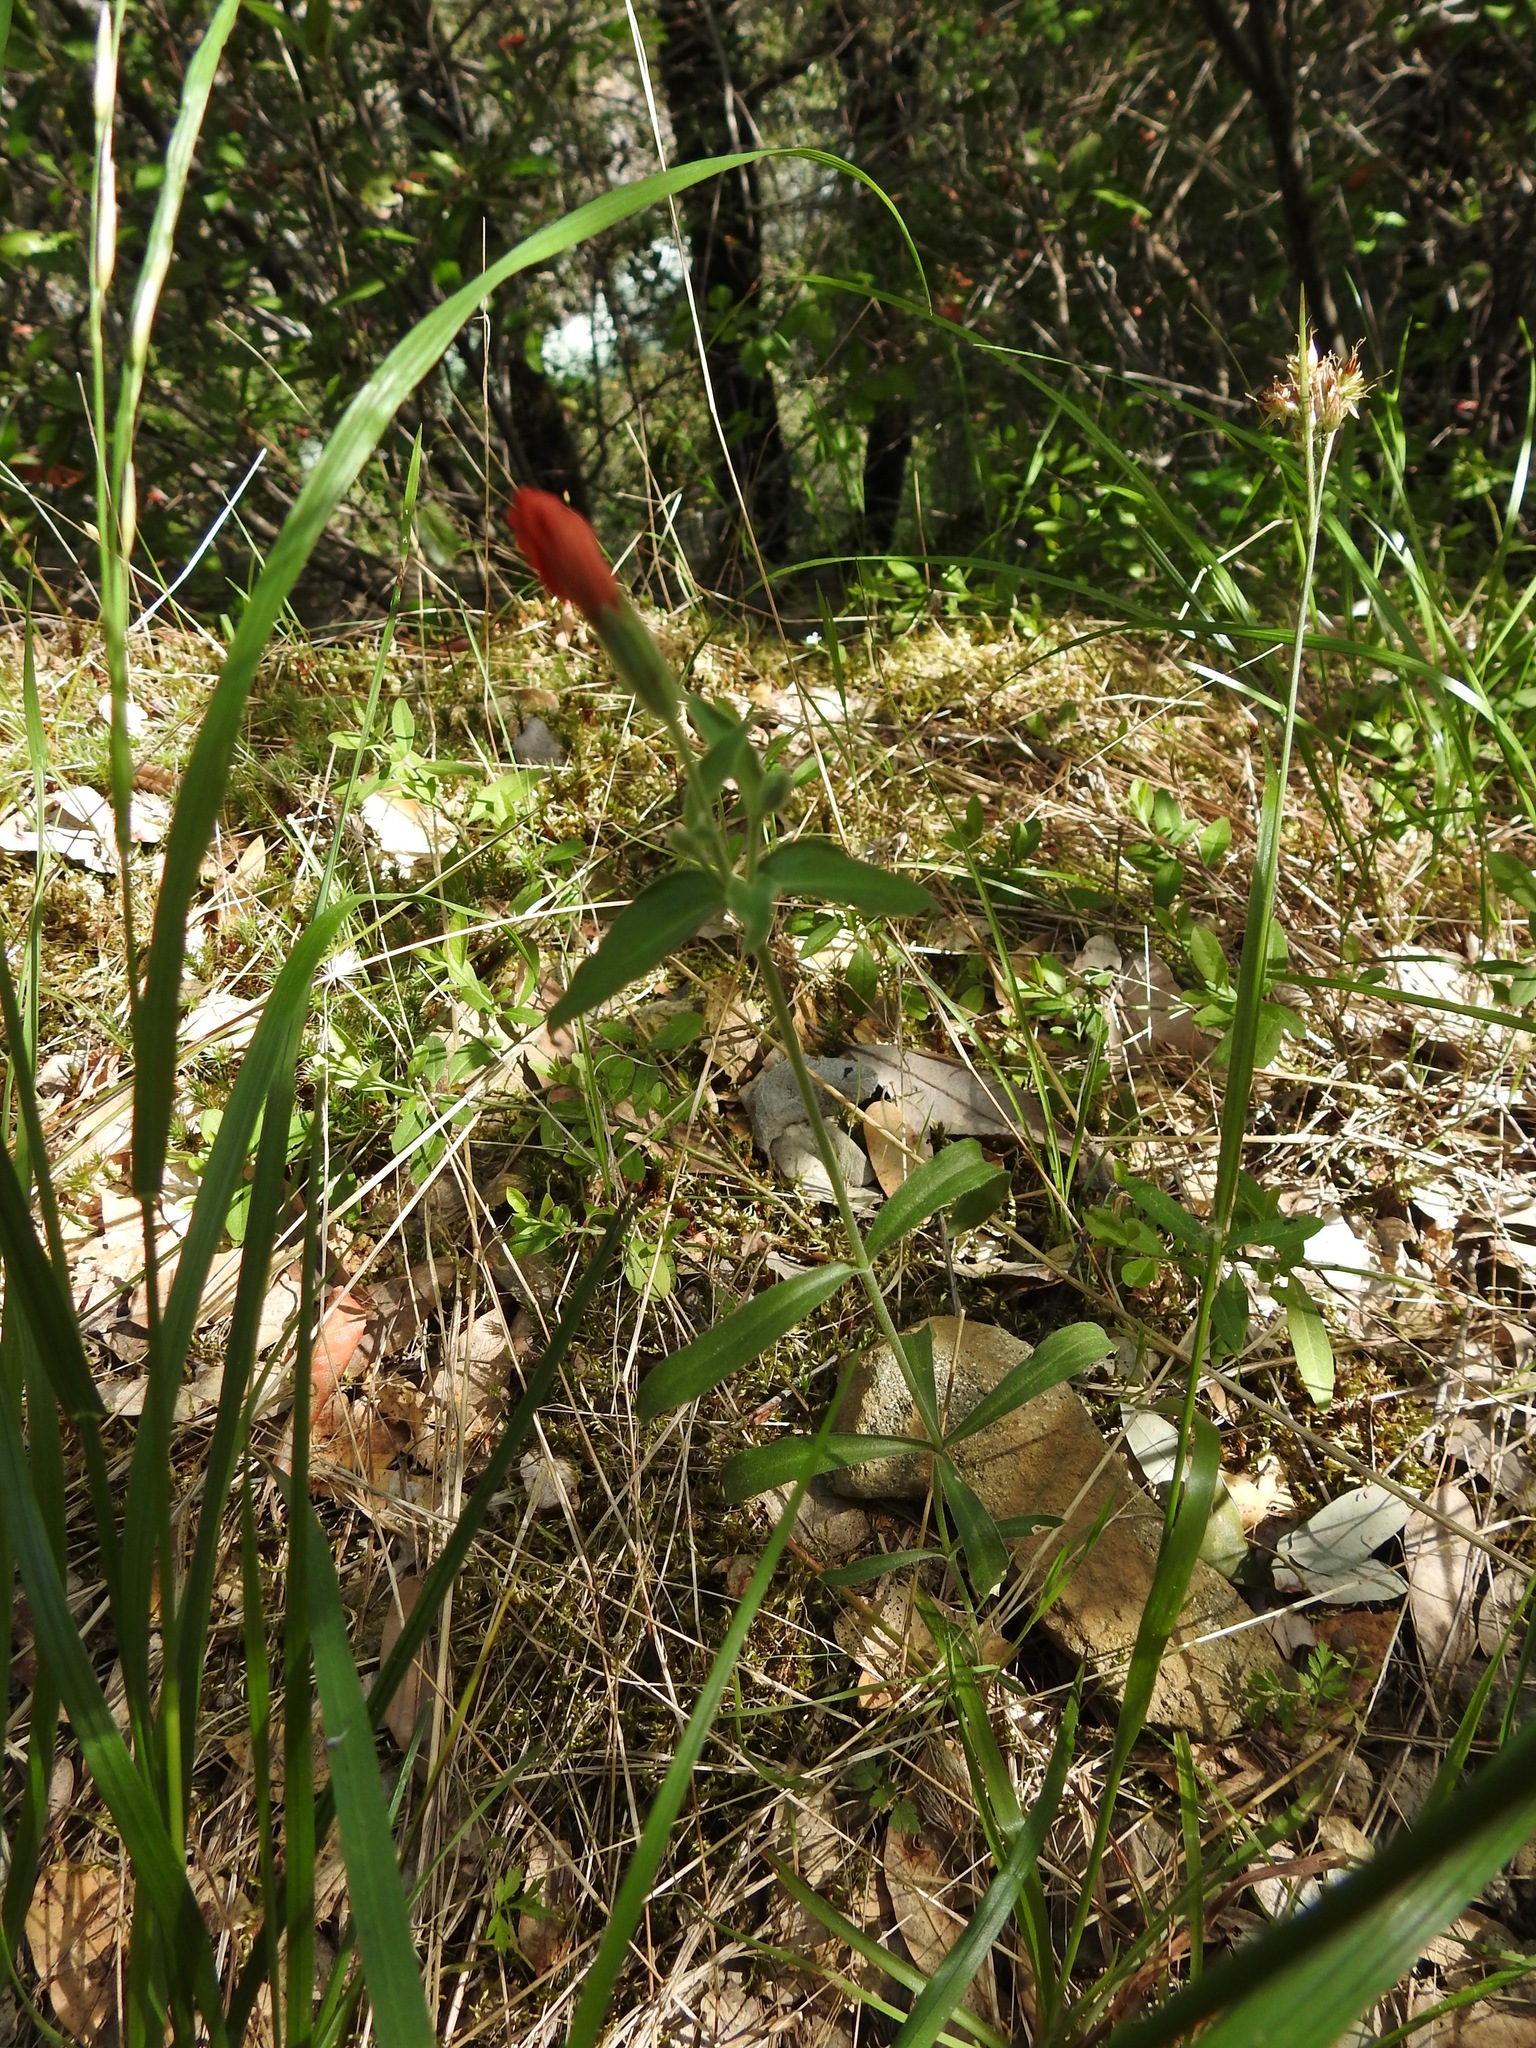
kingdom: Plantae
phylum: Tracheophyta
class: Magnoliopsida
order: Caryophyllales
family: Caryophyllaceae
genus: Silene
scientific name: Silene laciniata
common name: Indian-pink
